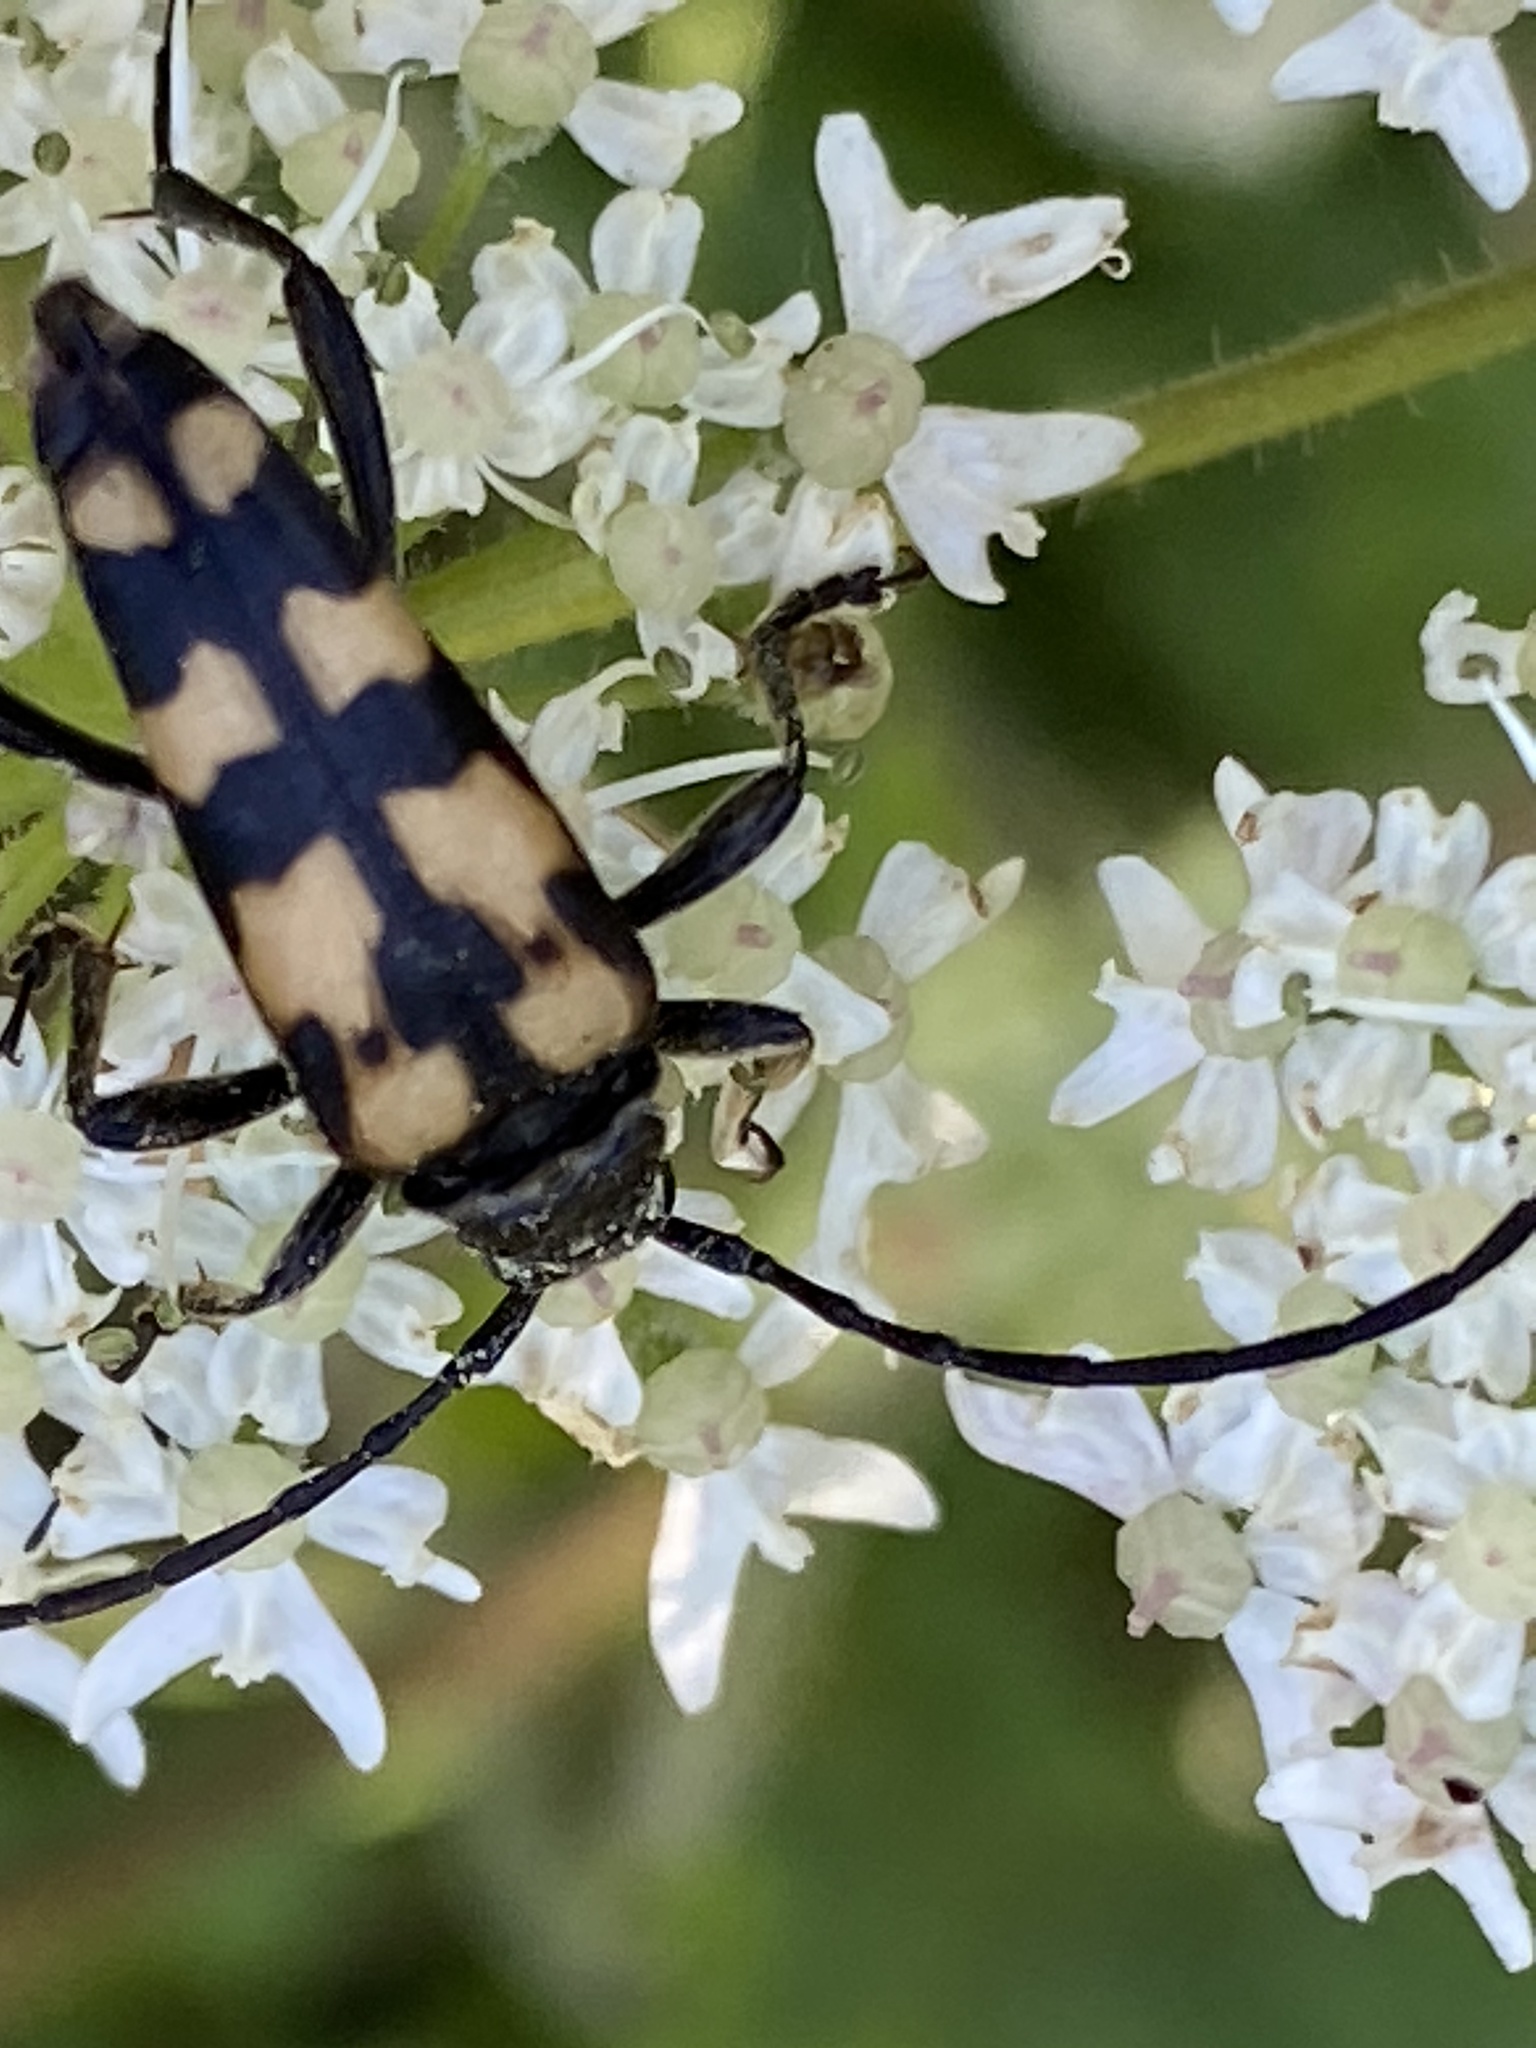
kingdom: Animalia
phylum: Arthropoda
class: Insecta
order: Coleoptera
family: Cerambycidae
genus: Leptura
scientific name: Leptura quadrifasciata
